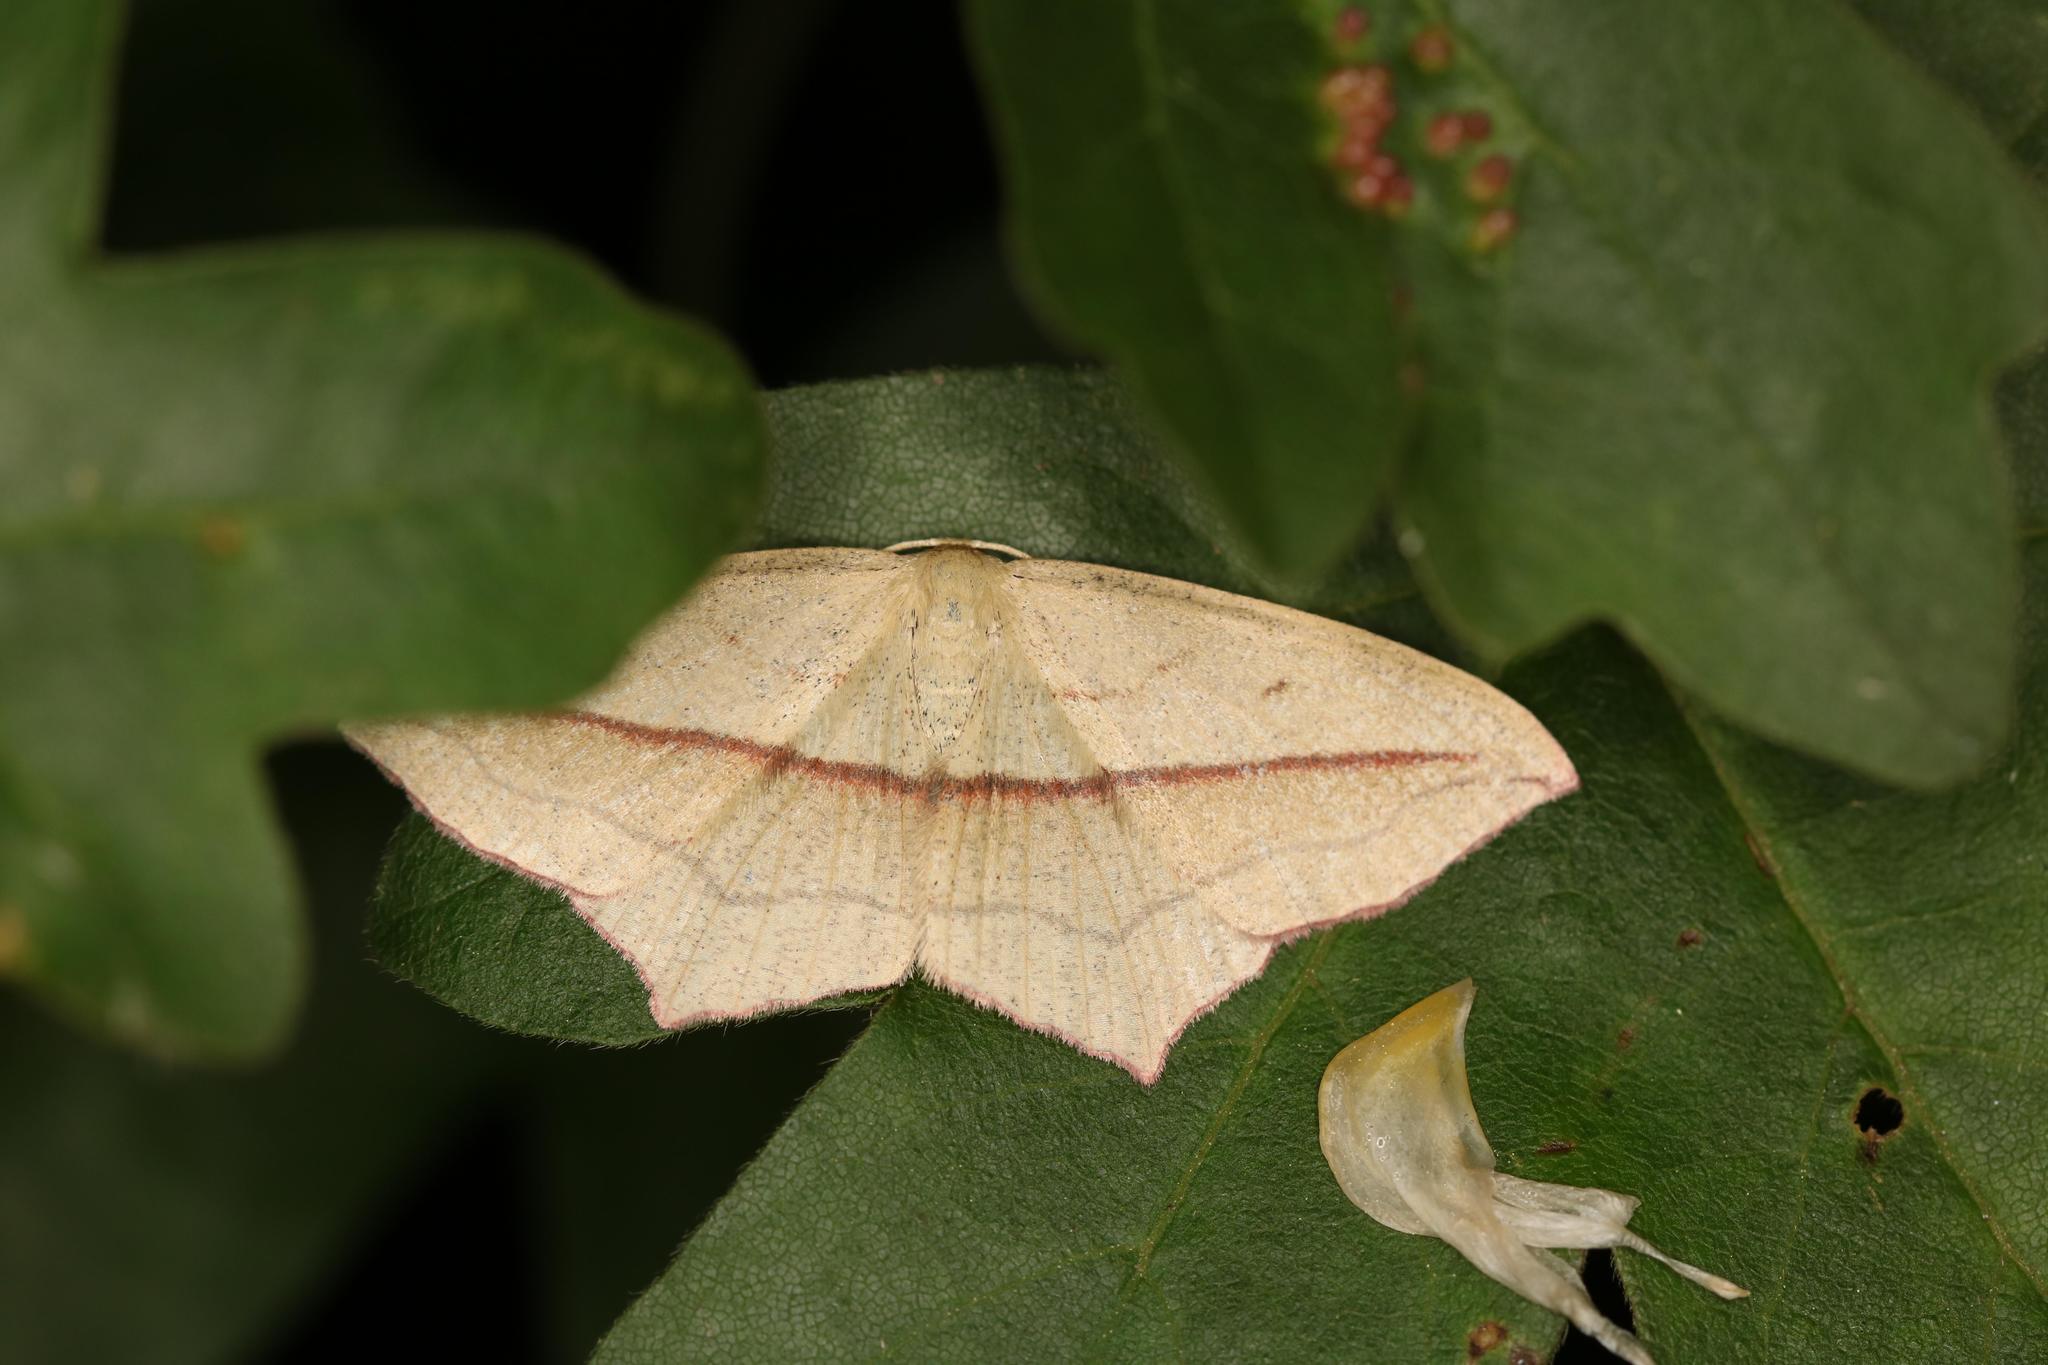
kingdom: Animalia
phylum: Arthropoda
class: Insecta
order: Lepidoptera
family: Geometridae
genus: Timandra
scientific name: Timandra comae
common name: Blood-vein
